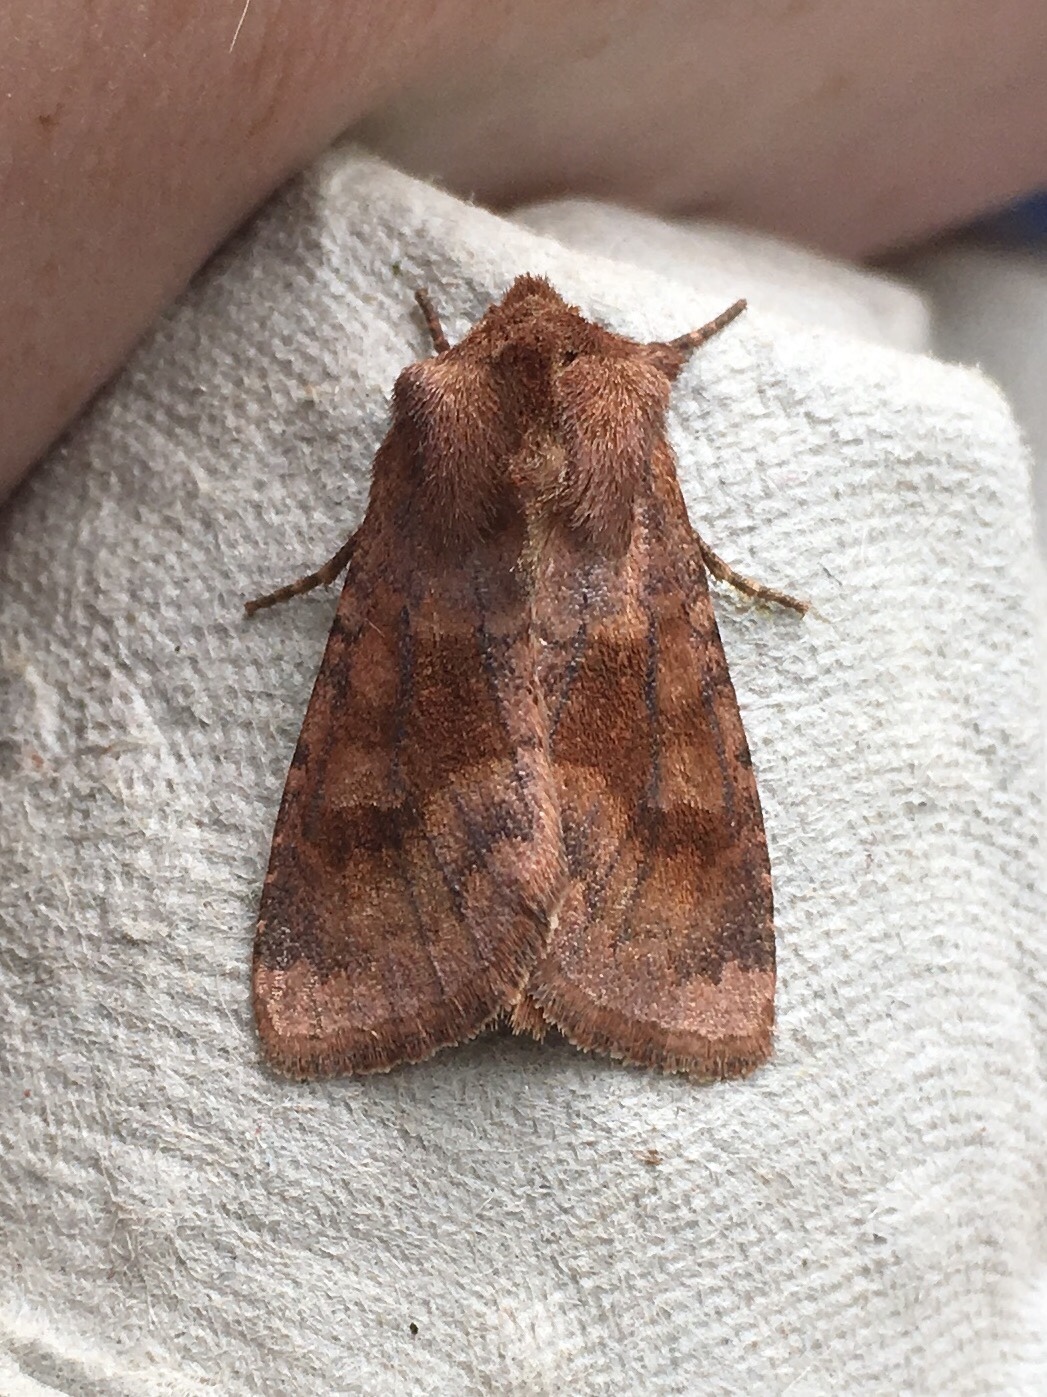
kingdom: Animalia
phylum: Arthropoda
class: Insecta
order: Lepidoptera
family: Noctuidae
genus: Nephelodes
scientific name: Nephelodes minians
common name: Bronzed cutworm
